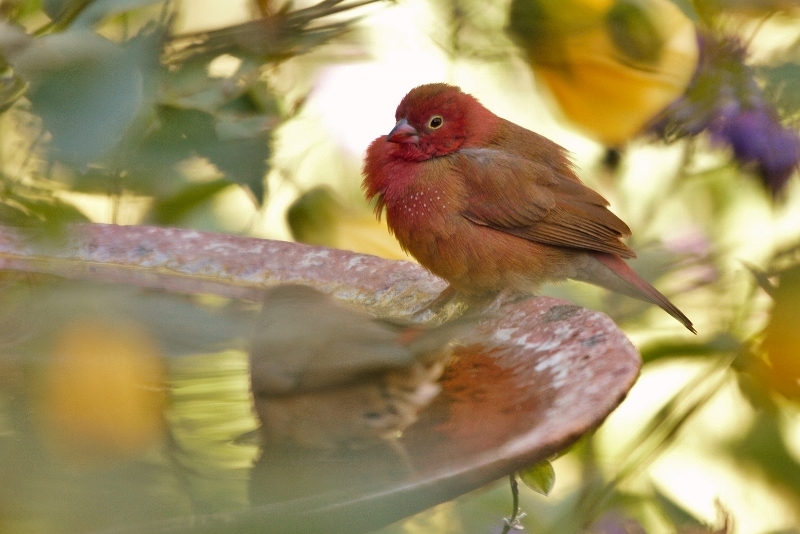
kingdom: Animalia
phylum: Chordata
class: Aves
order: Passeriformes
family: Estrildidae
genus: Lagonosticta
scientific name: Lagonosticta senegala
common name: Red-billed firefinch
